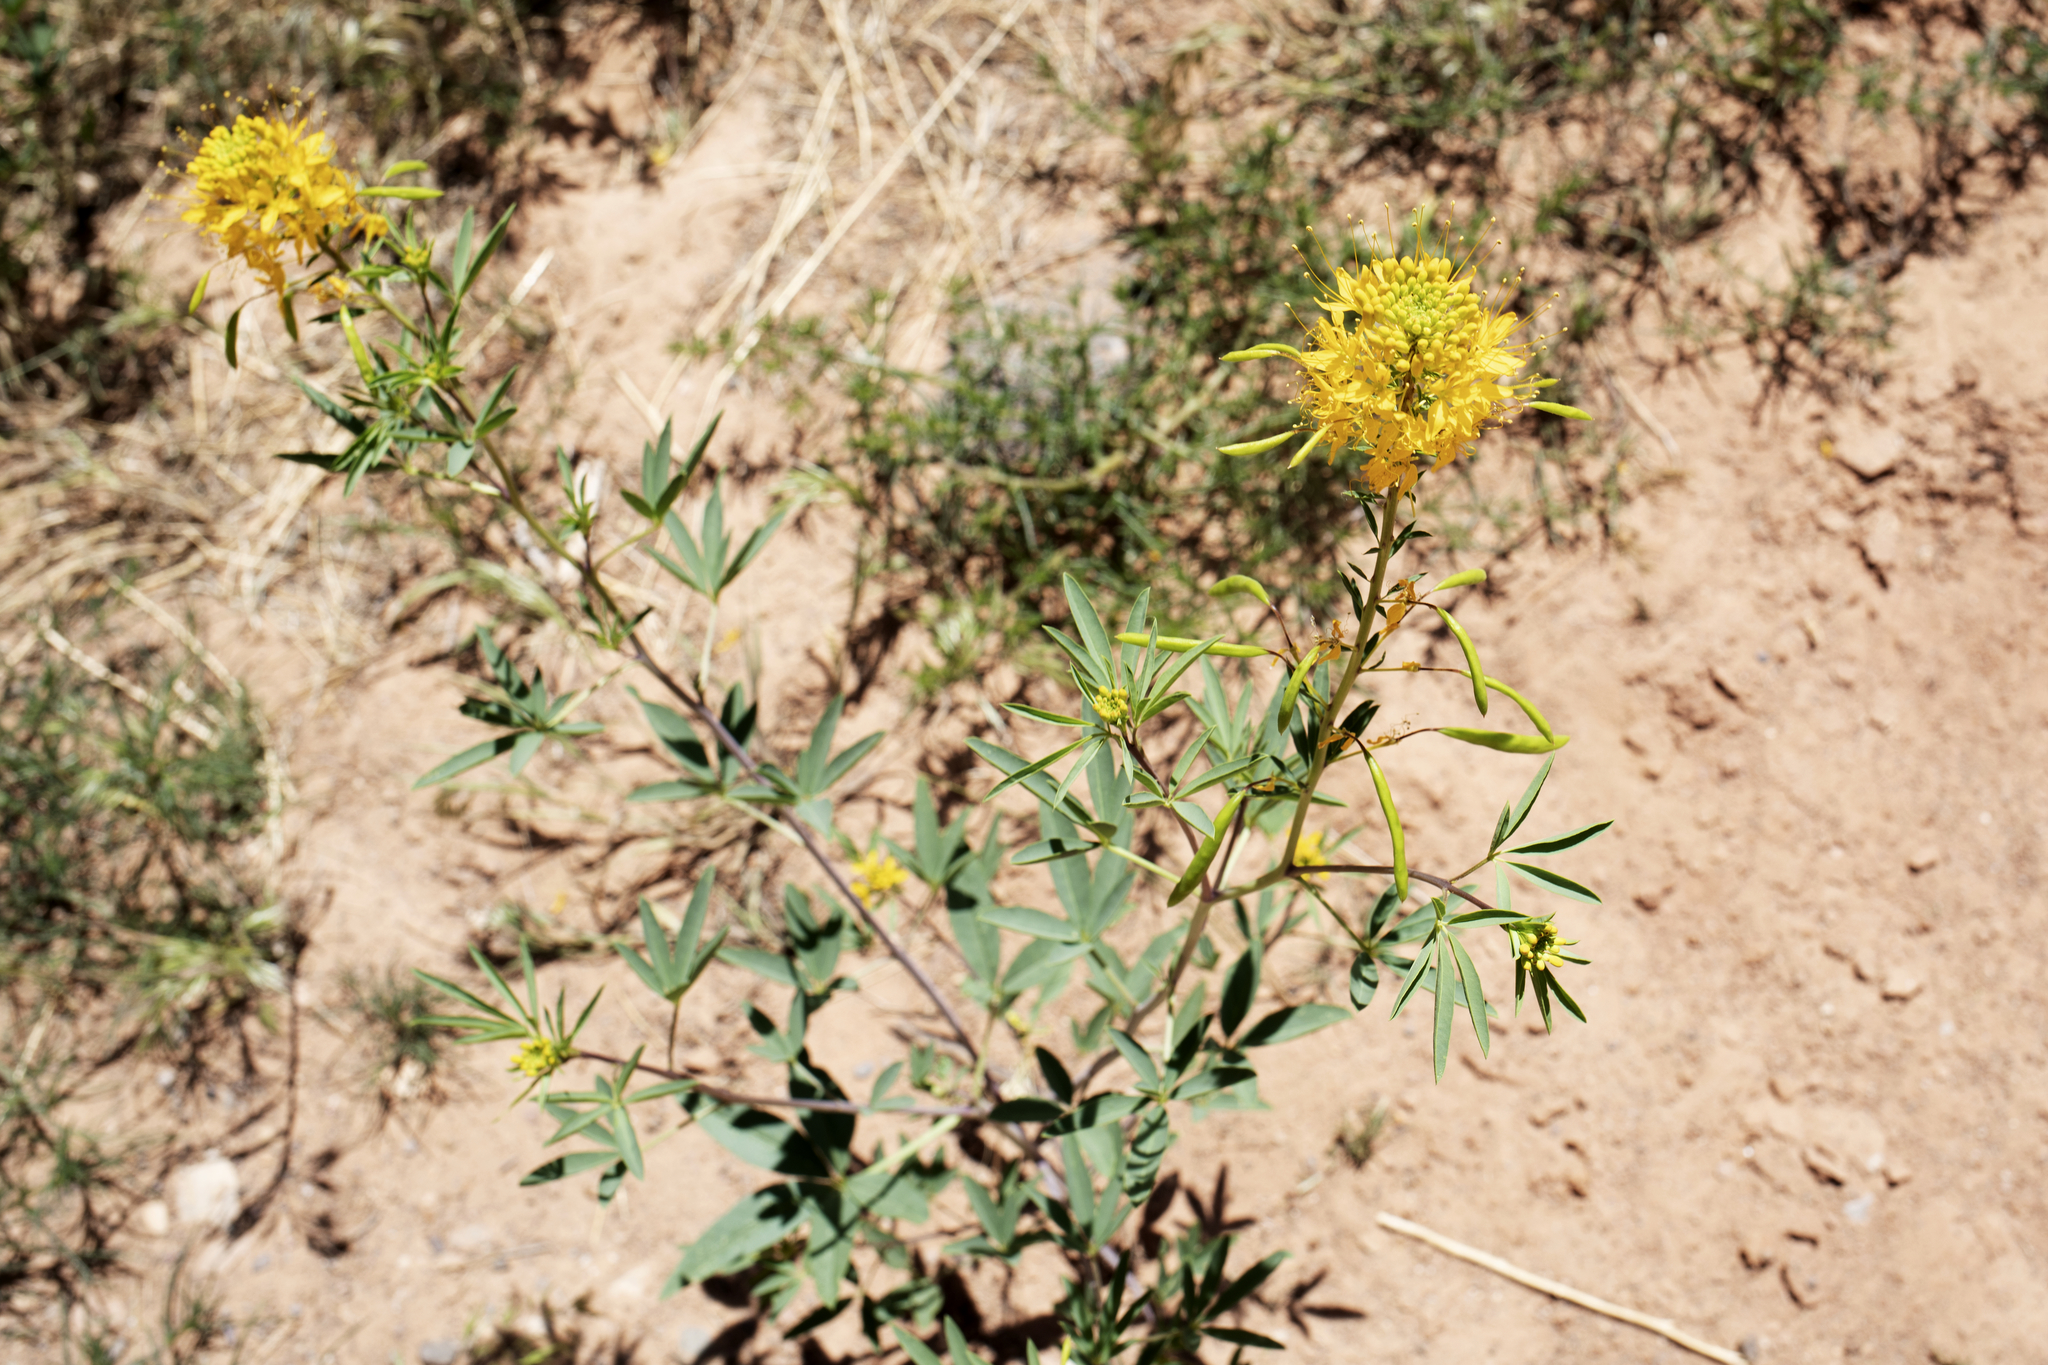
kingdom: Plantae
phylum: Tracheophyta
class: Magnoliopsida
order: Brassicales
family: Cleomaceae
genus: Cleomella
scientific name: Cleomella lutea
